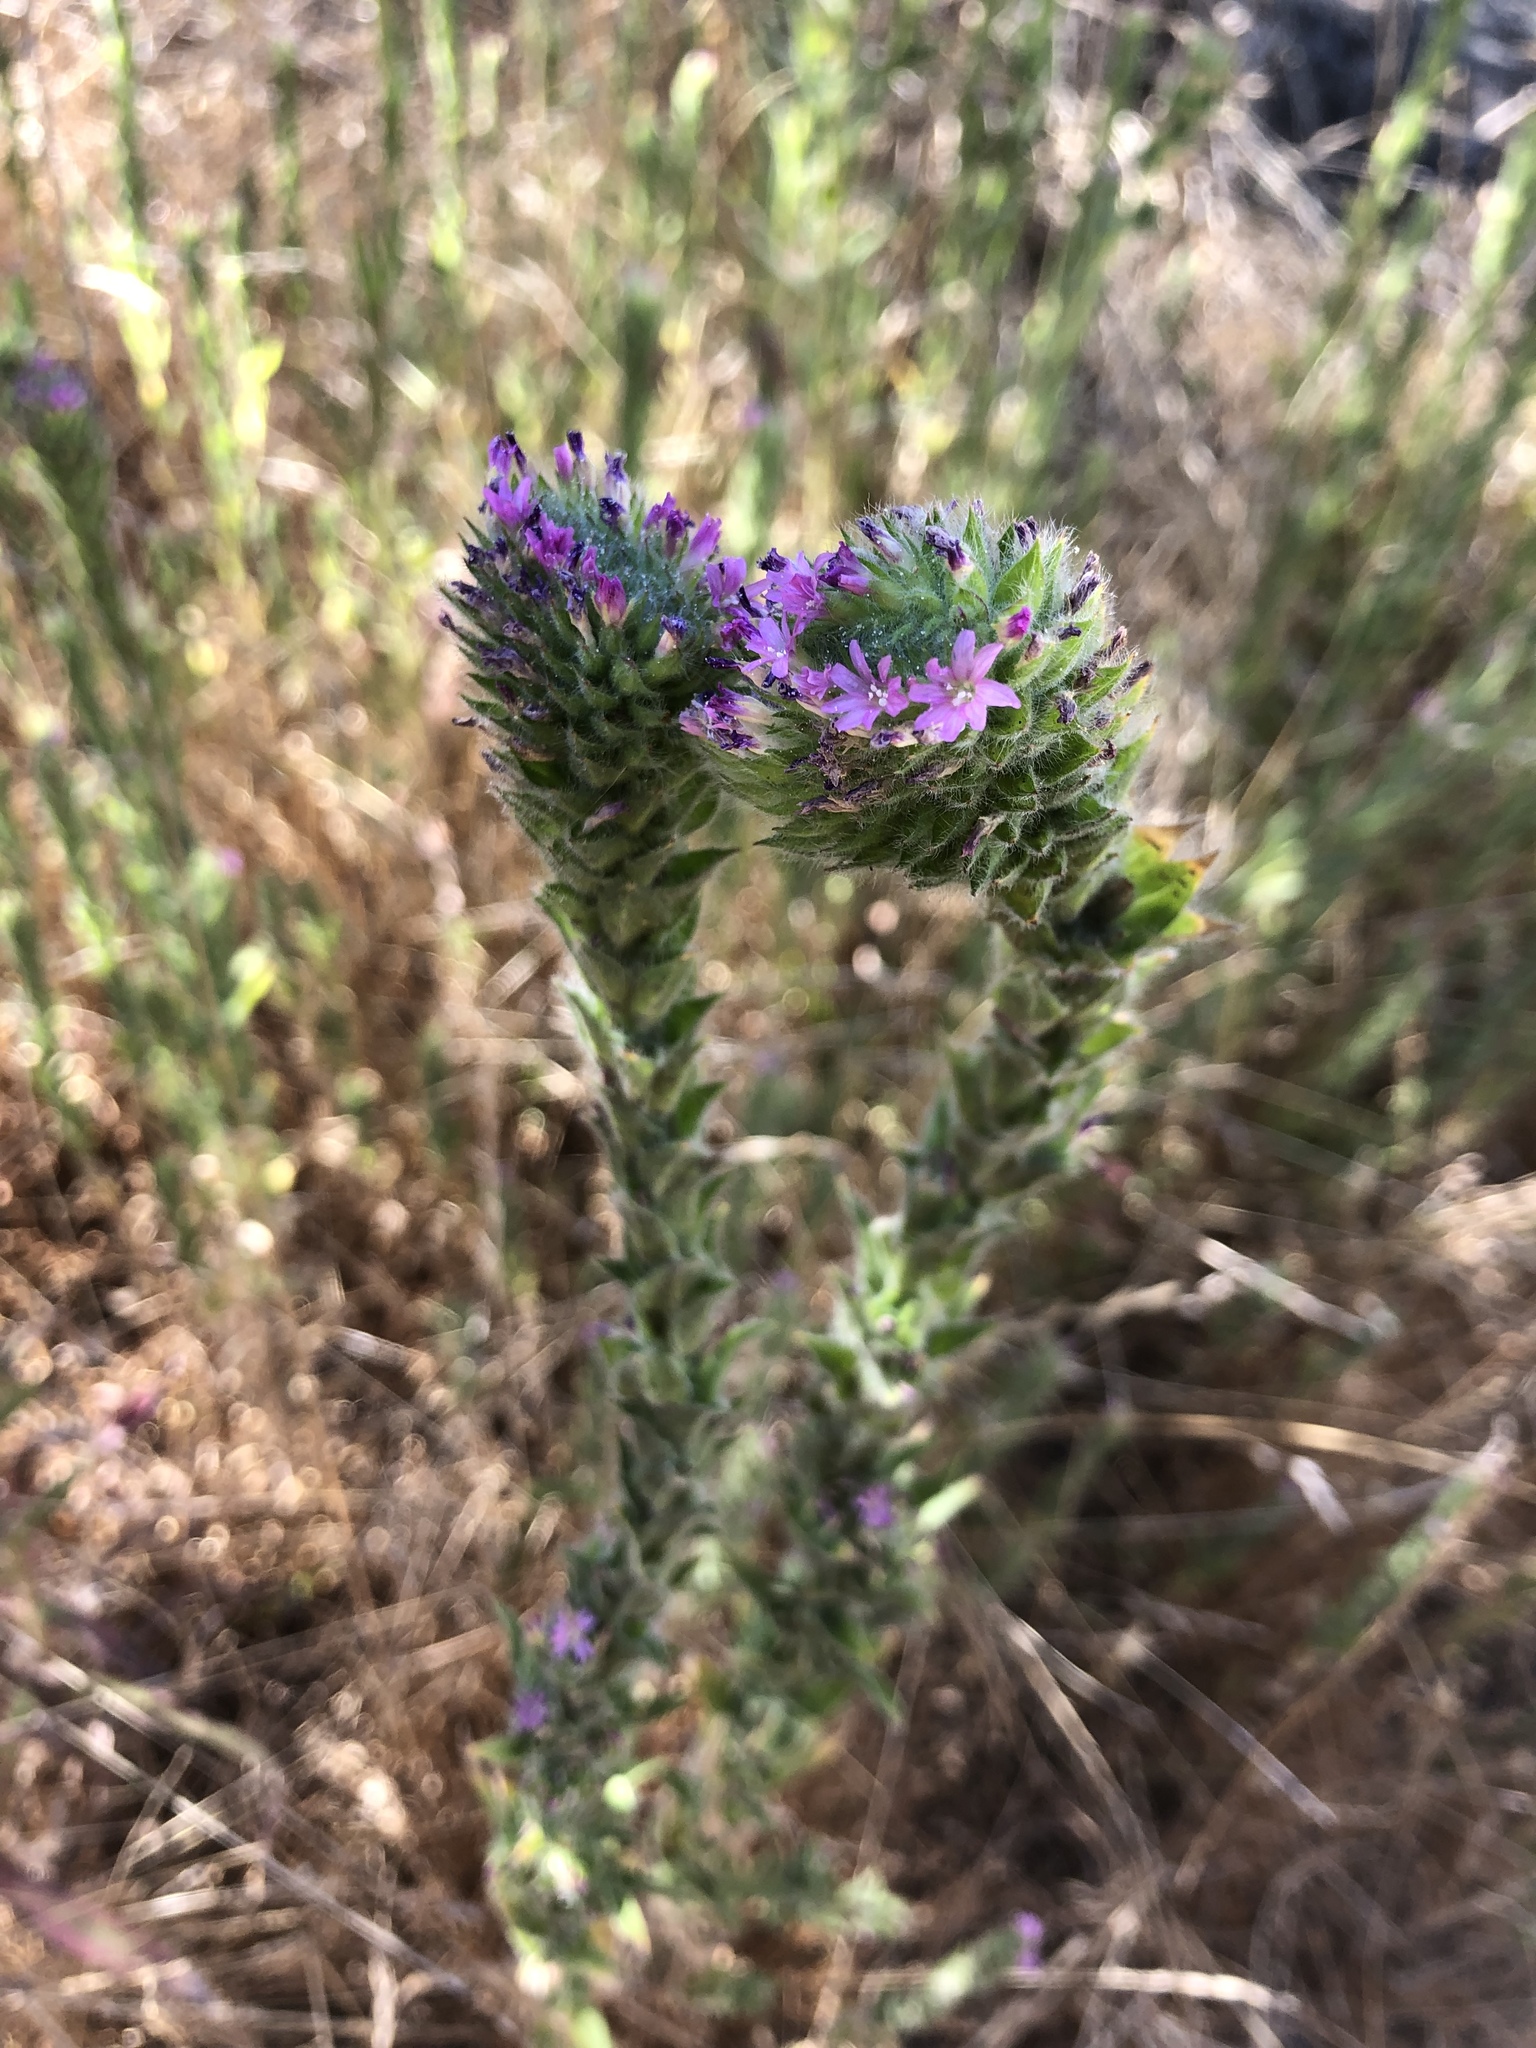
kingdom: Plantae
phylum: Tracheophyta
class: Magnoliopsida
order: Myrtales
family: Onagraceae
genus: Epilobium
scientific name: Epilobium densiflorum
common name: Dense spike-primrose
